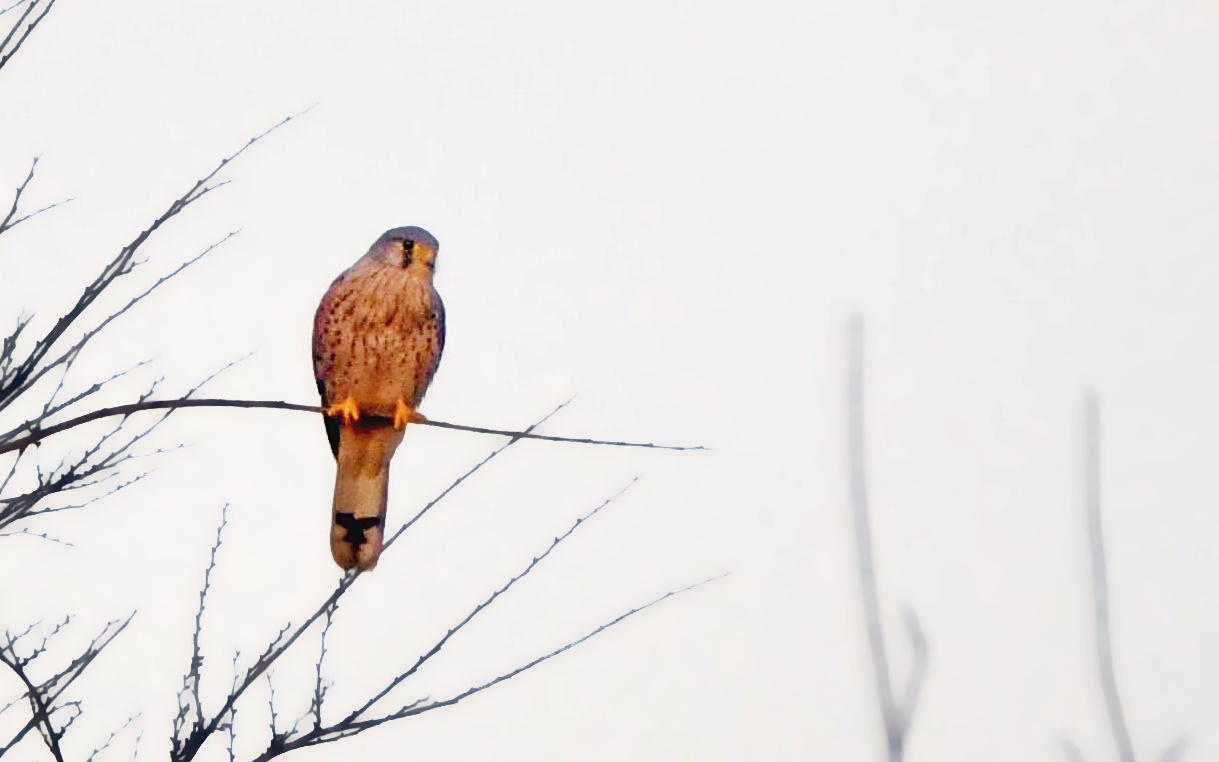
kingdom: Animalia
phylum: Chordata
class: Aves
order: Falconiformes
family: Falconidae
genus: Falco
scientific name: Falco tinnunculus
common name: Common kestrel
